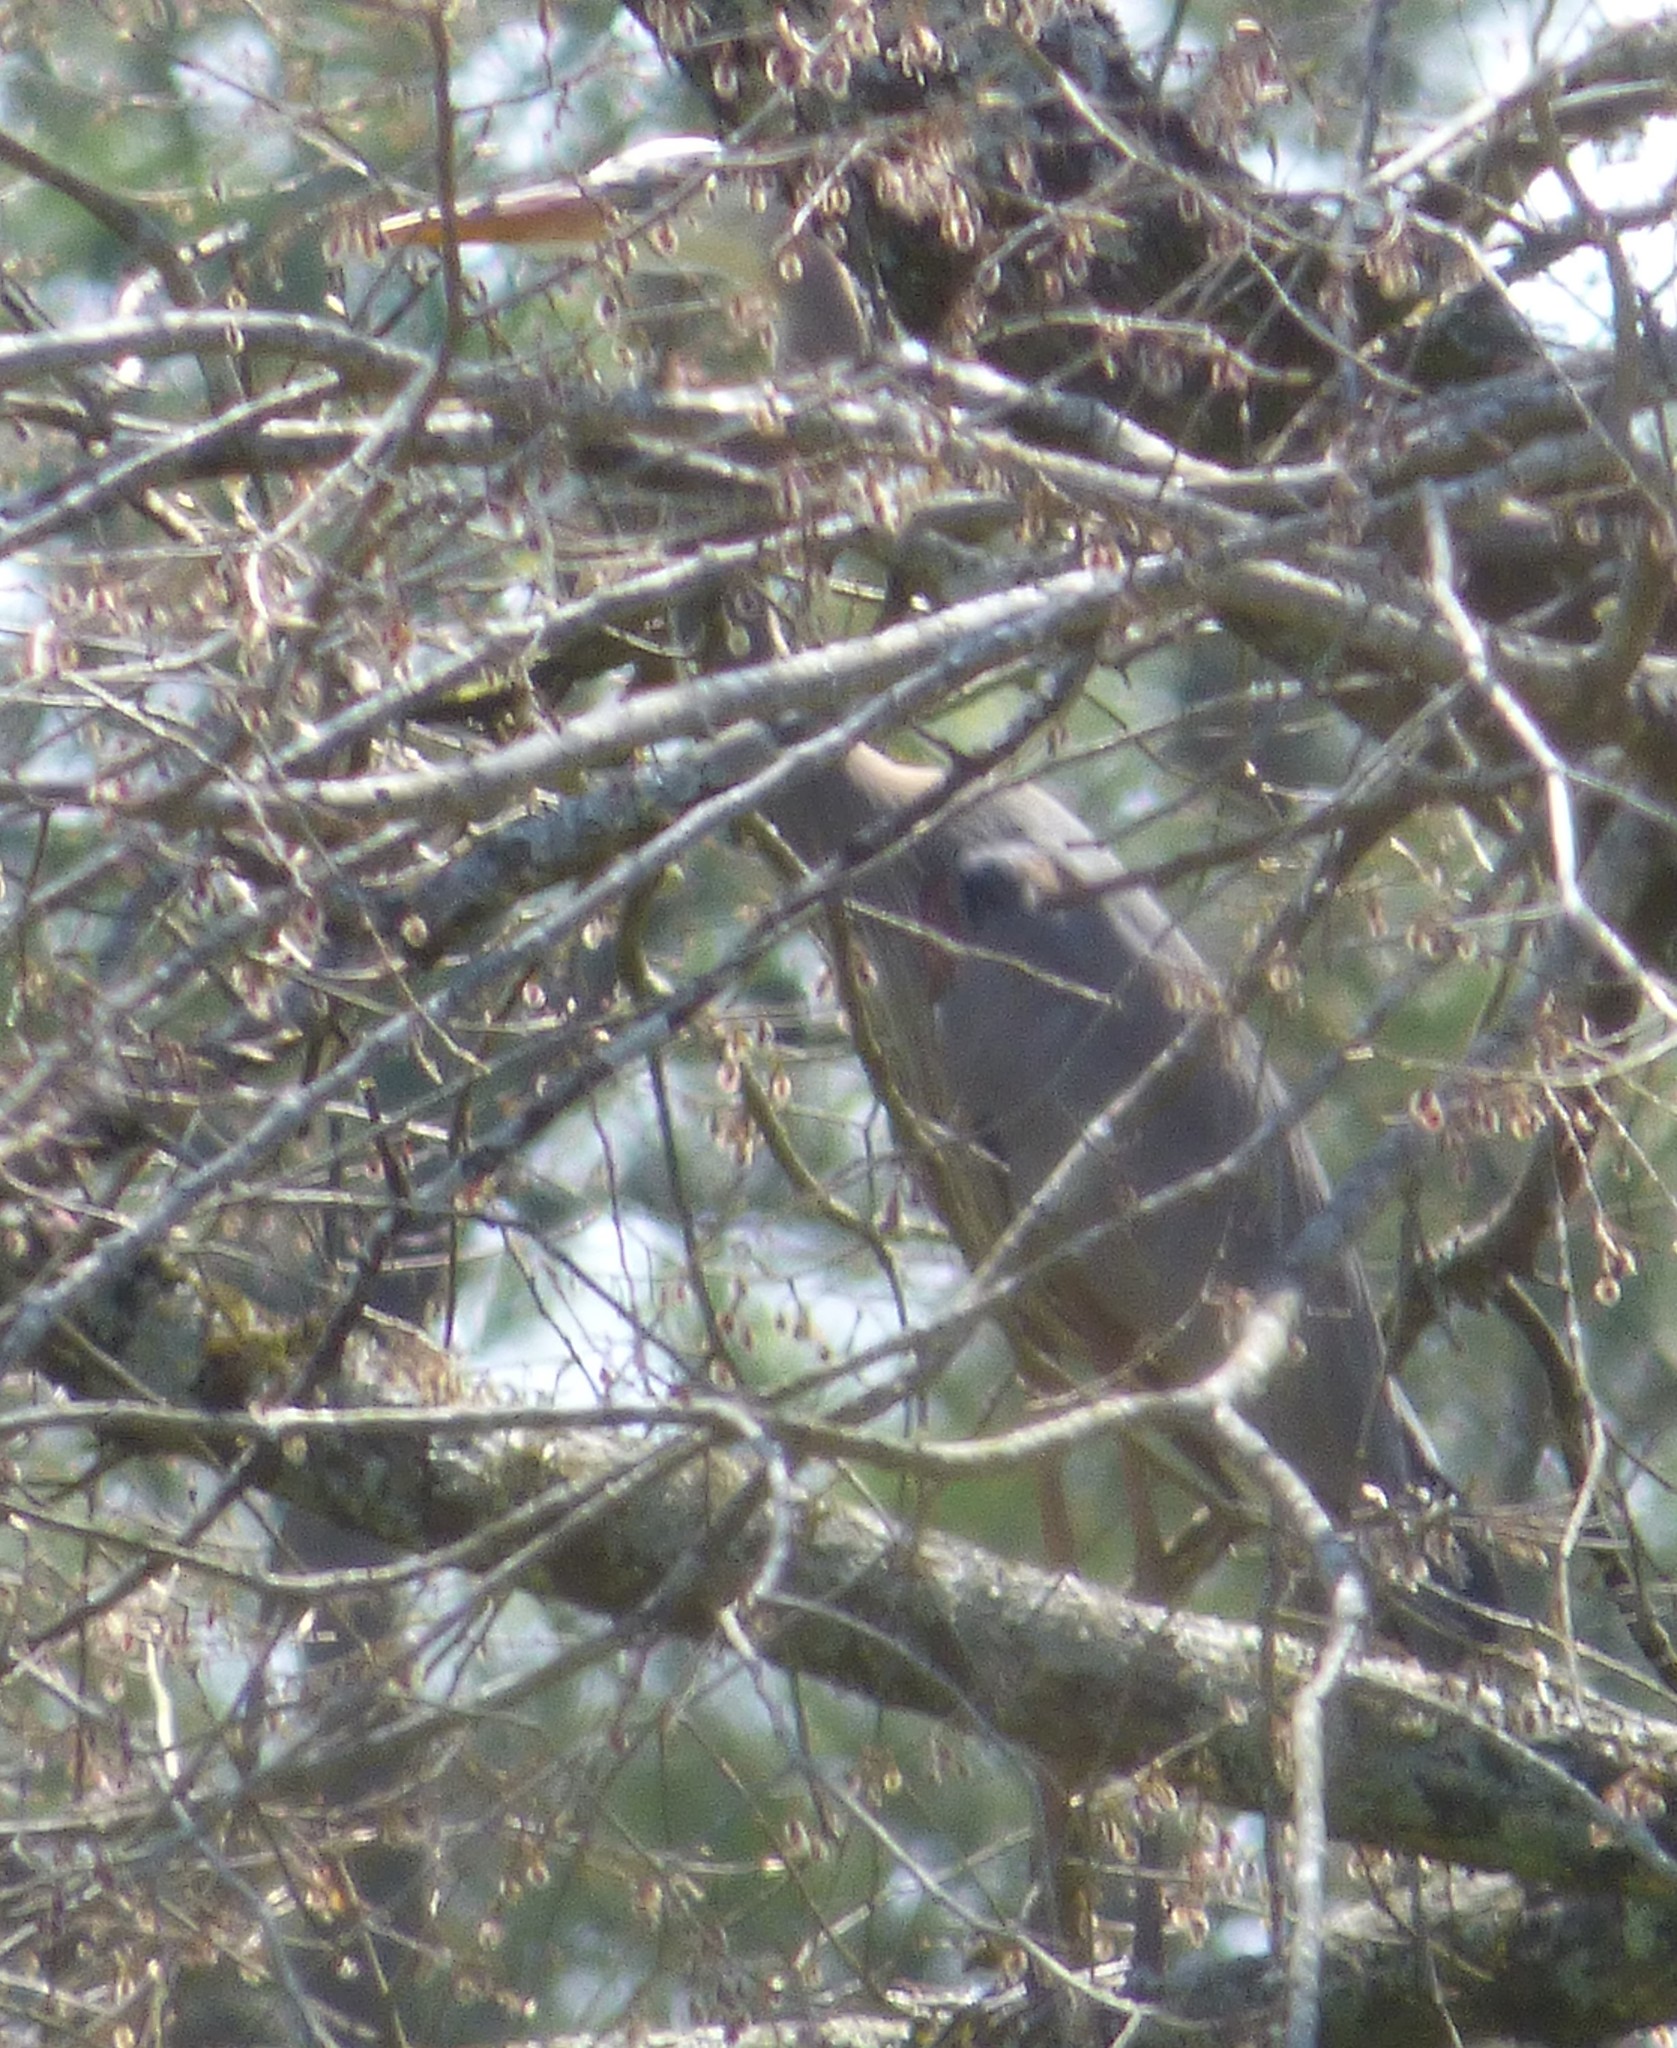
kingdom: Animalia
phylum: Chordata
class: Aves
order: Pelecaniformes
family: Ardeidae
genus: Ardea
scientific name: Ardea herodias
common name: Great blue heron
